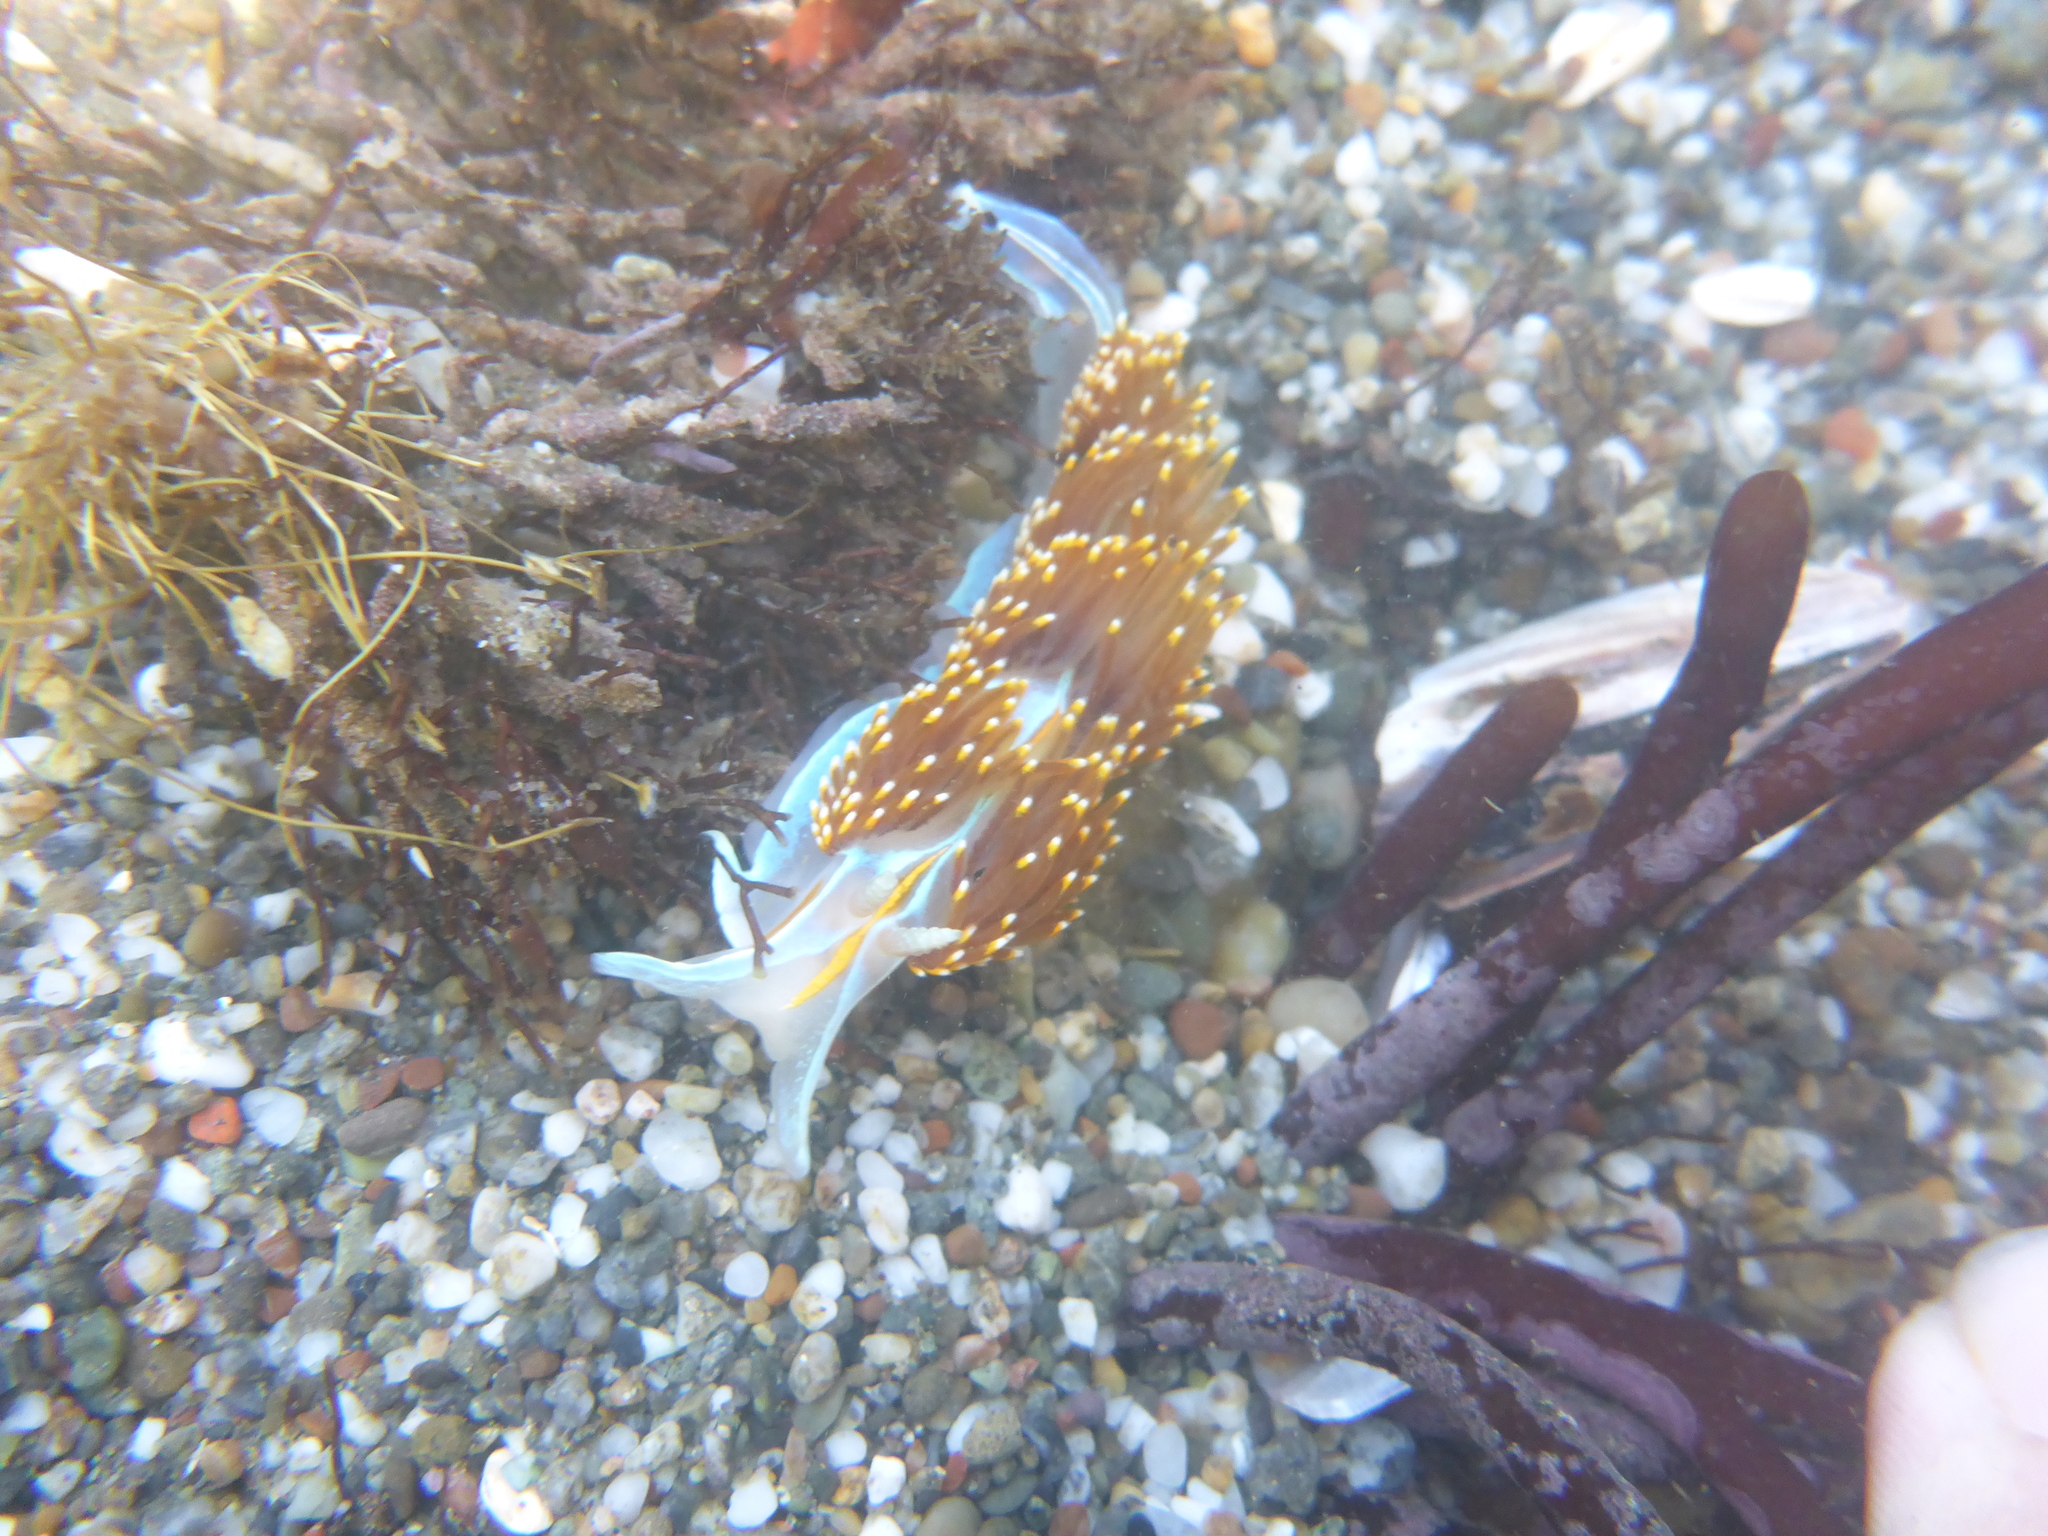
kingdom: Animalia
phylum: Mollusca
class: Gastropoda
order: Nudibranchia
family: Myrrhinidae
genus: Hermissenda
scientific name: Hermissenda opalescens
